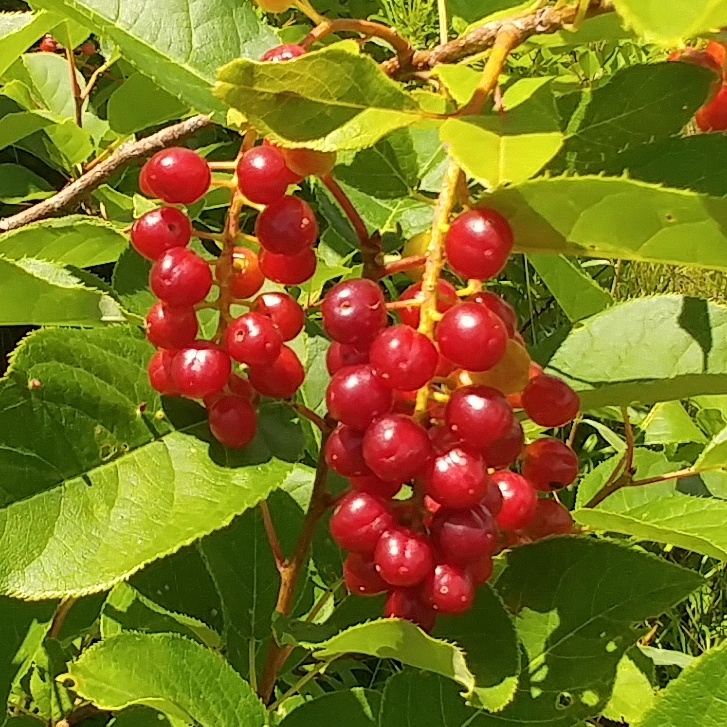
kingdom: Plantae
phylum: Tracheophyta
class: Magnoliopsida
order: Rosales
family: Rosaceae
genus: Prunus
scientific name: Prunus virginiana
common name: Chokecherry
